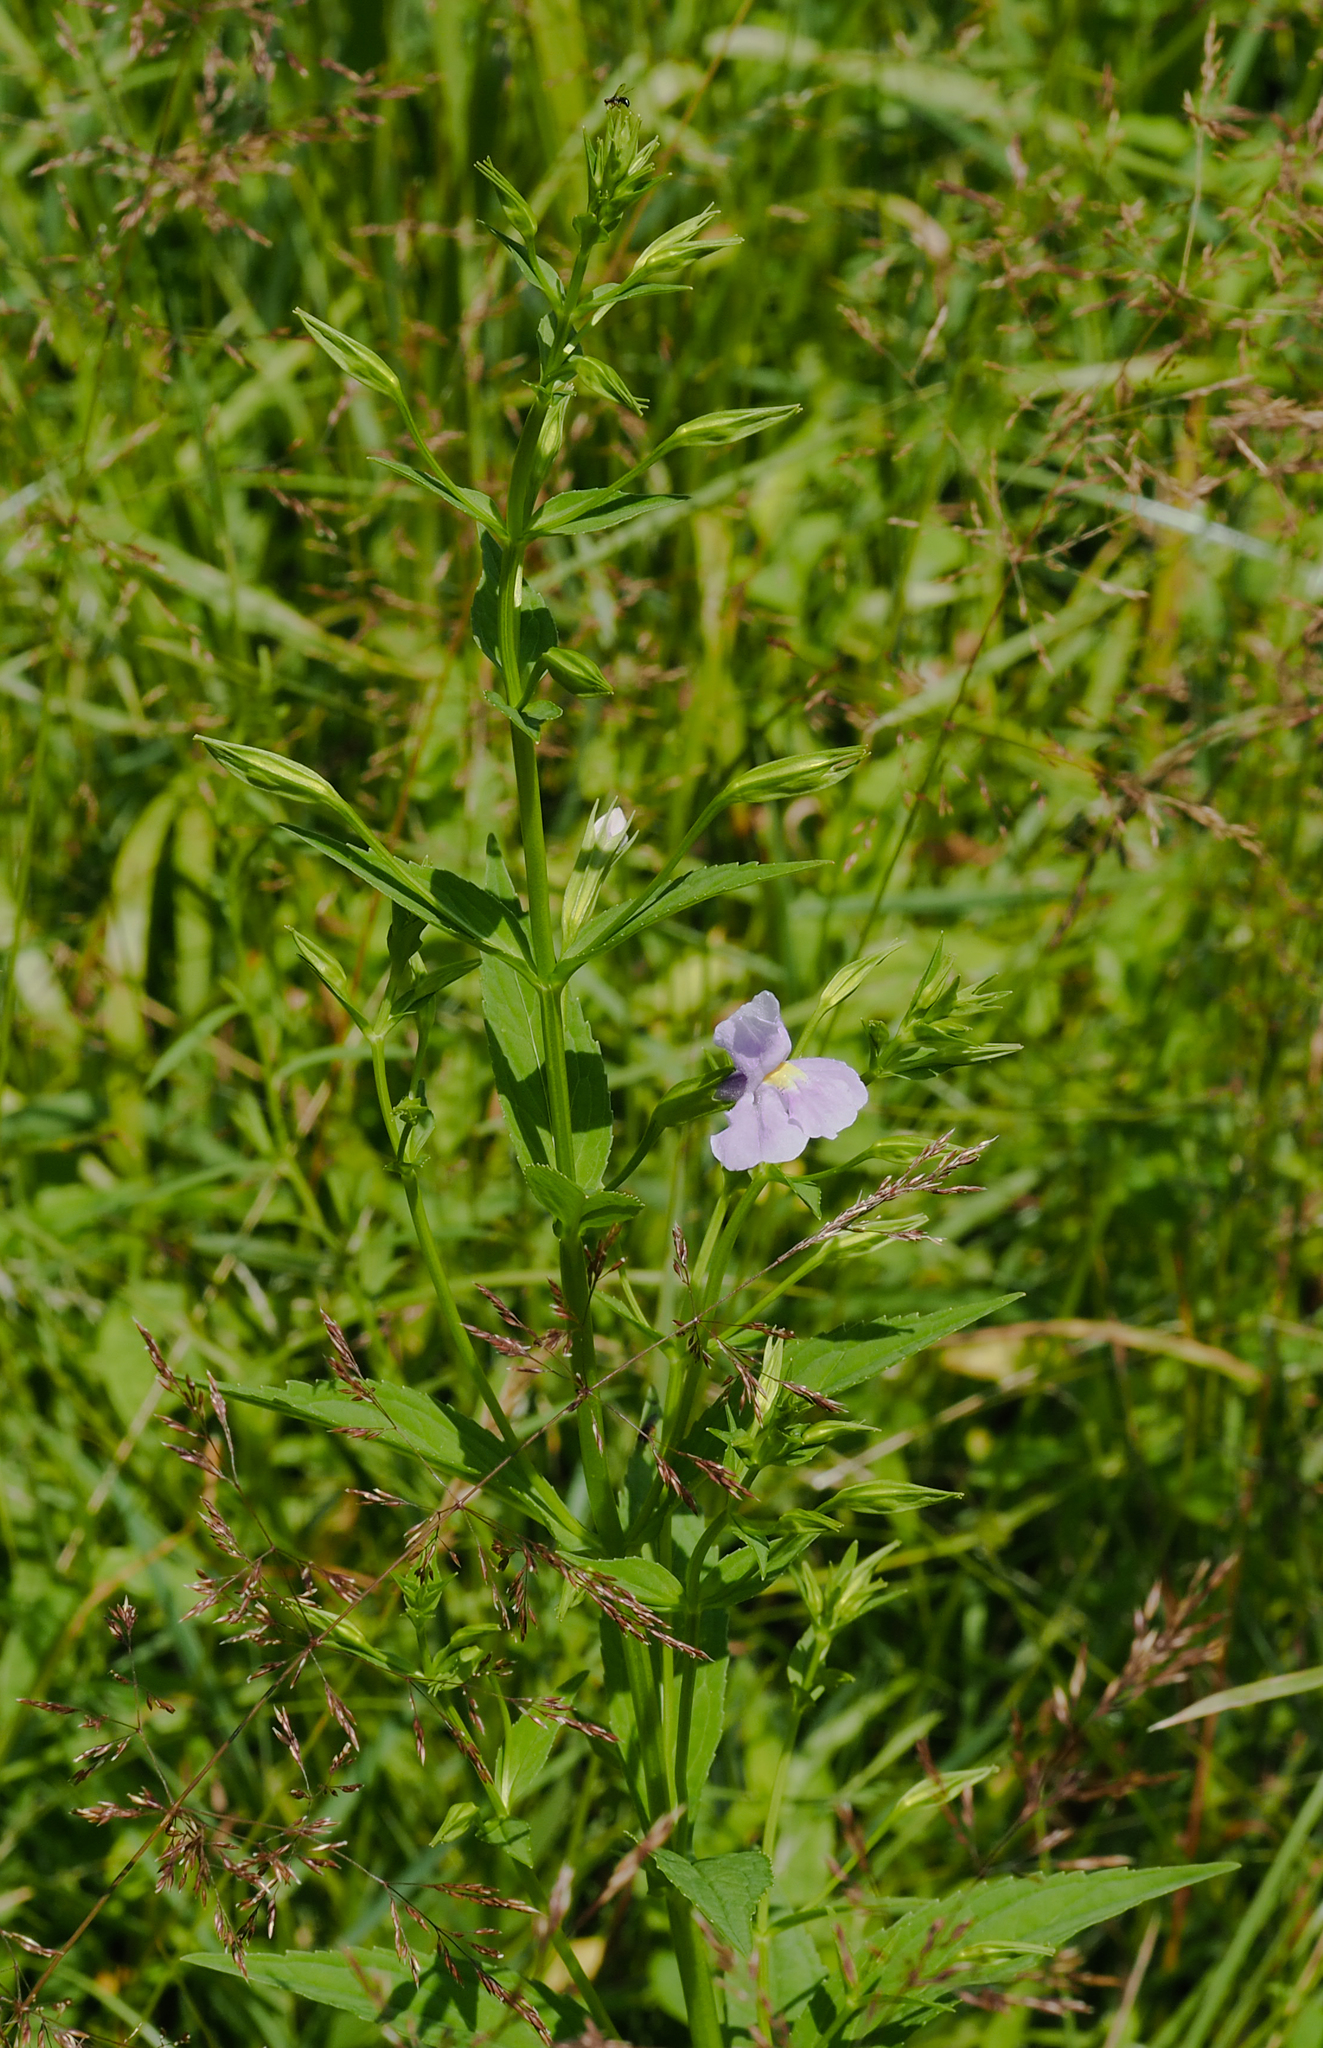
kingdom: Plantae
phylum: Tracheophyta
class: Magnoliopsida
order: Lamiales
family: Phrymaceae
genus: Mimulus
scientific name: Mimulus ringens
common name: Allegheny monkeyflower
